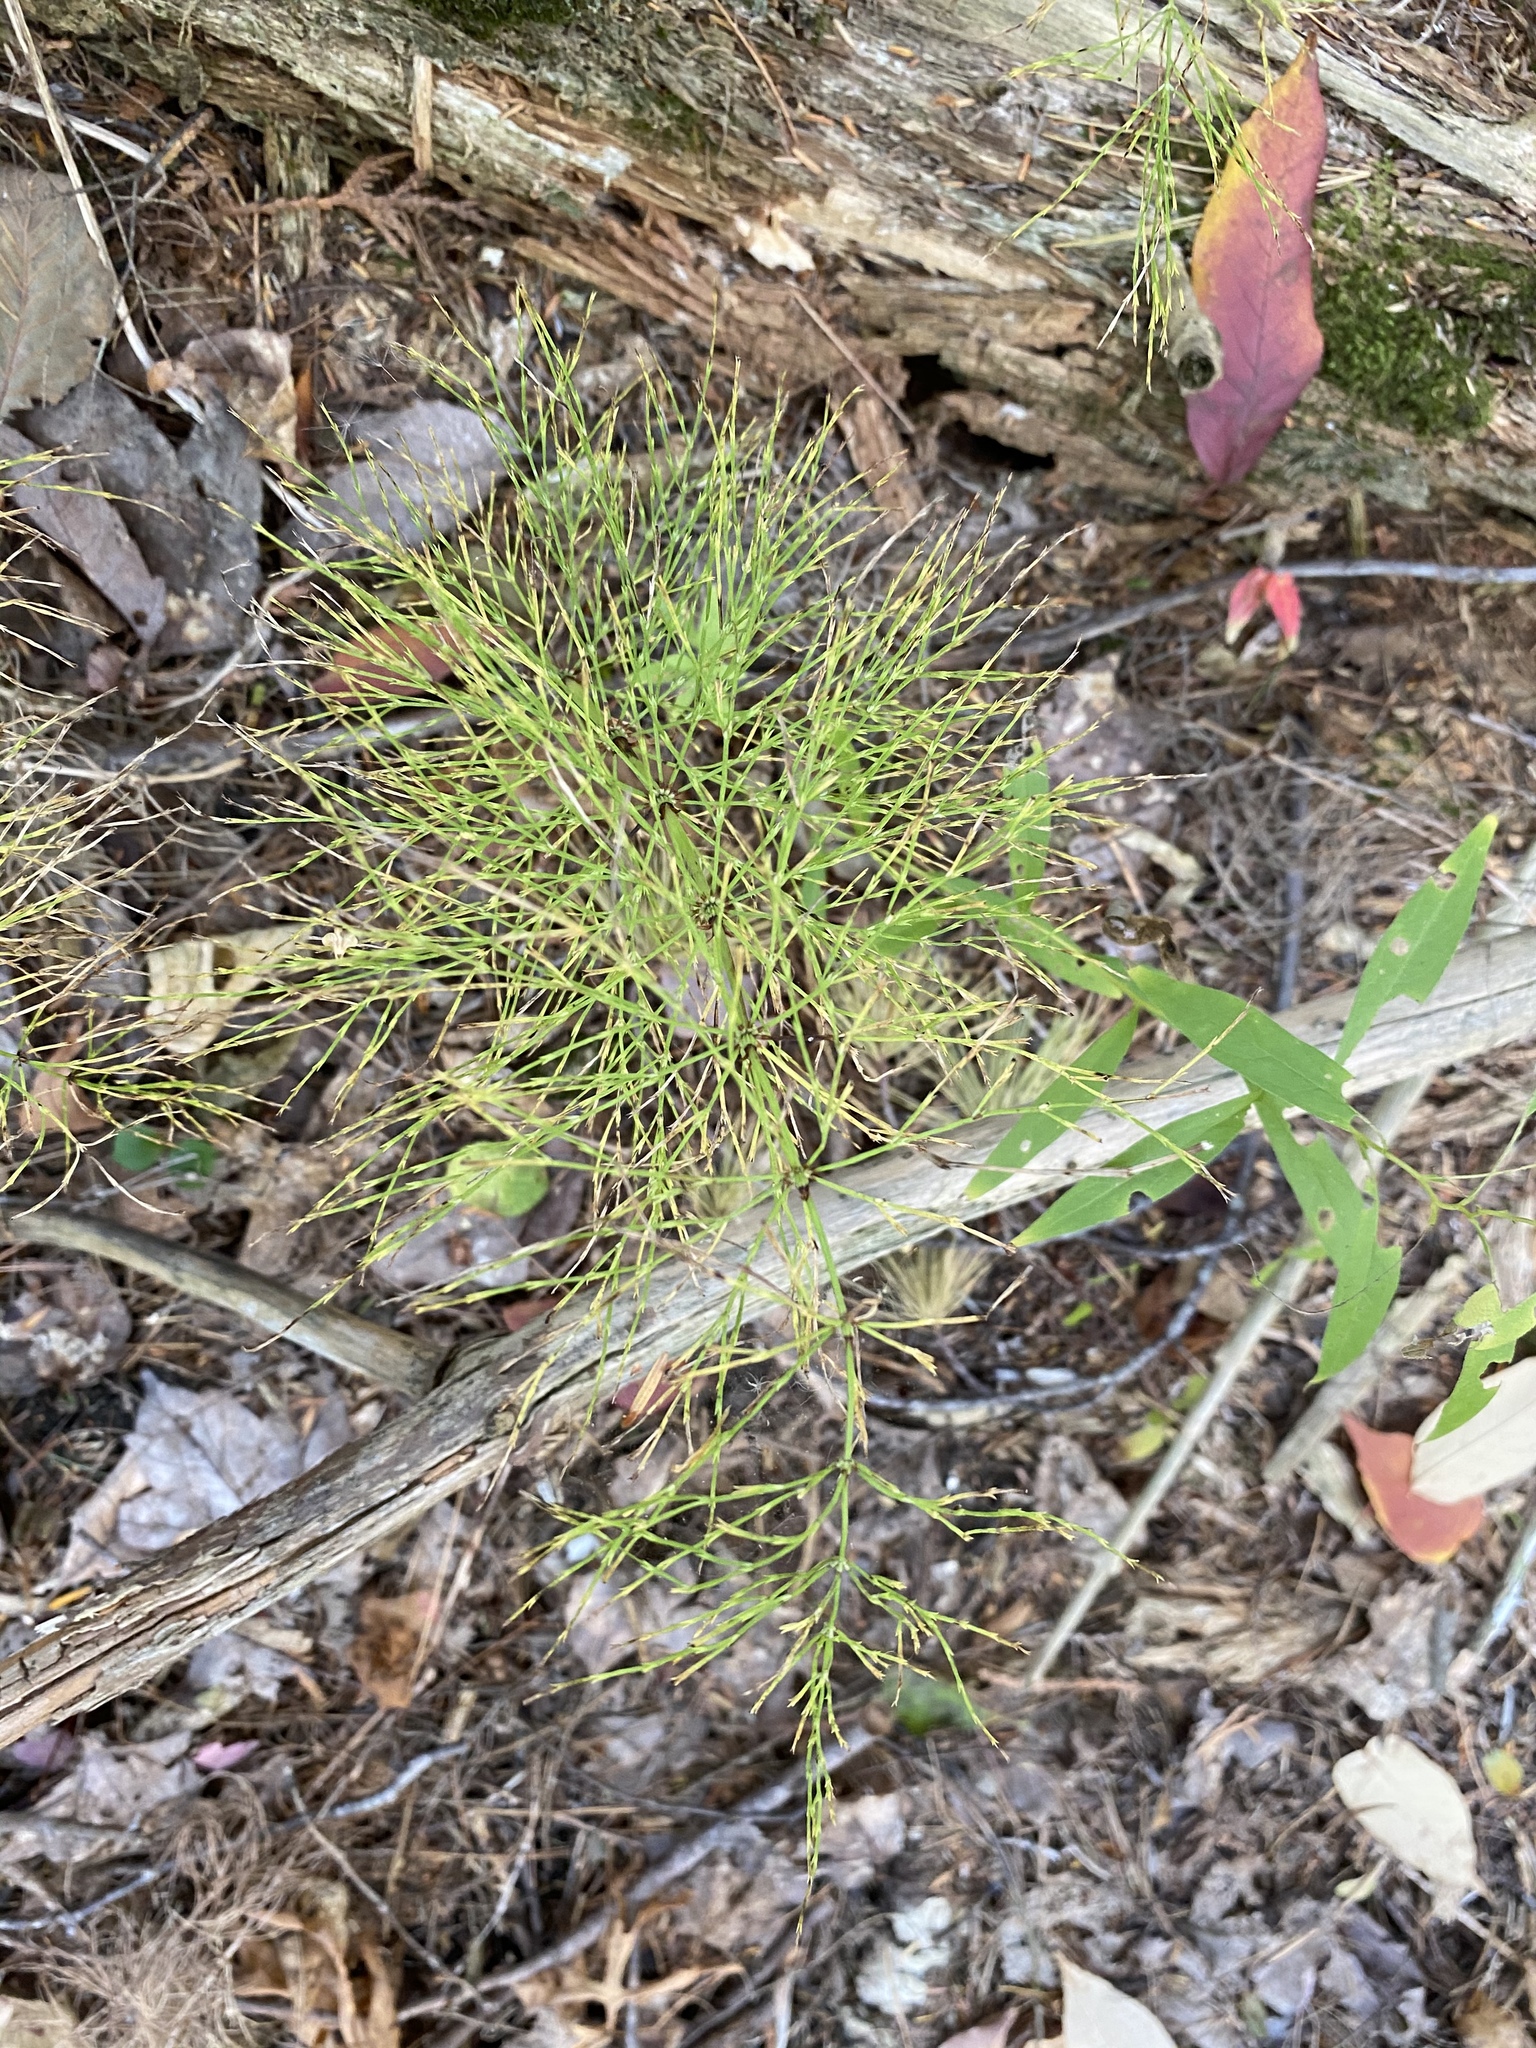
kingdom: Plantae
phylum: Tracheophyta
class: Polypodiopsida
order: Equisetales
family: Equisetaceae
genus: Equisetum
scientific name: Equisetum sylvaticum
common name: Wood horsetail
